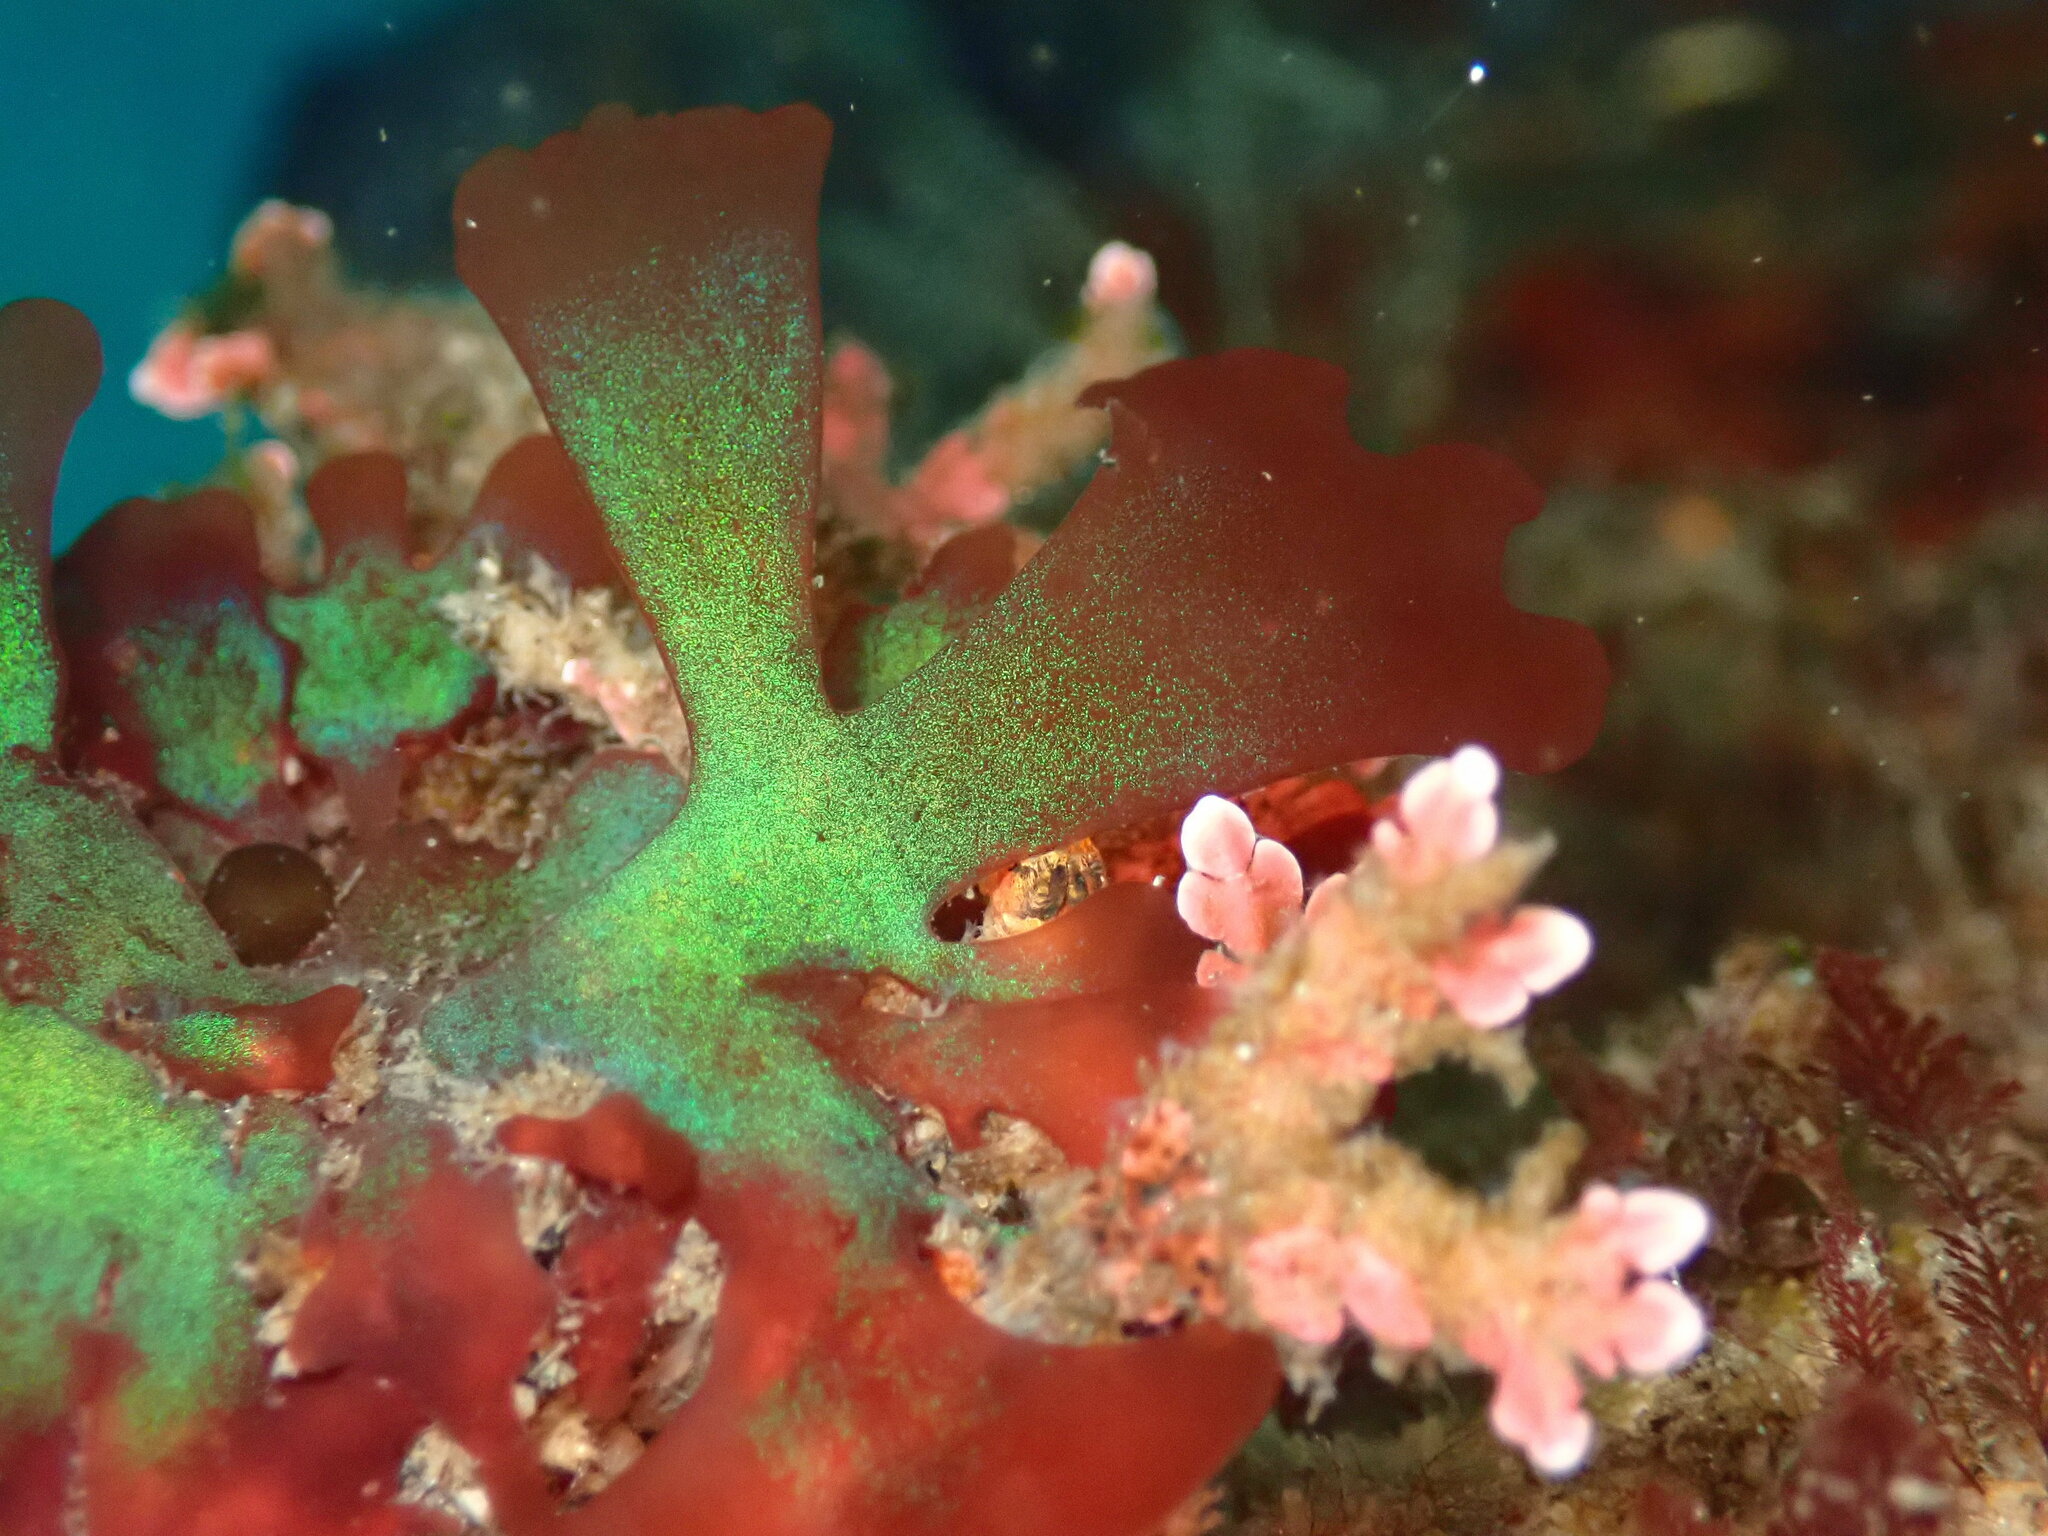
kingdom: Plantae
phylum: Rhodophyta
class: Florideophyceae
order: Rhodymeniales
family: Faucheaceae
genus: Gloiocladia
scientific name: Gloiocladia laciniata
